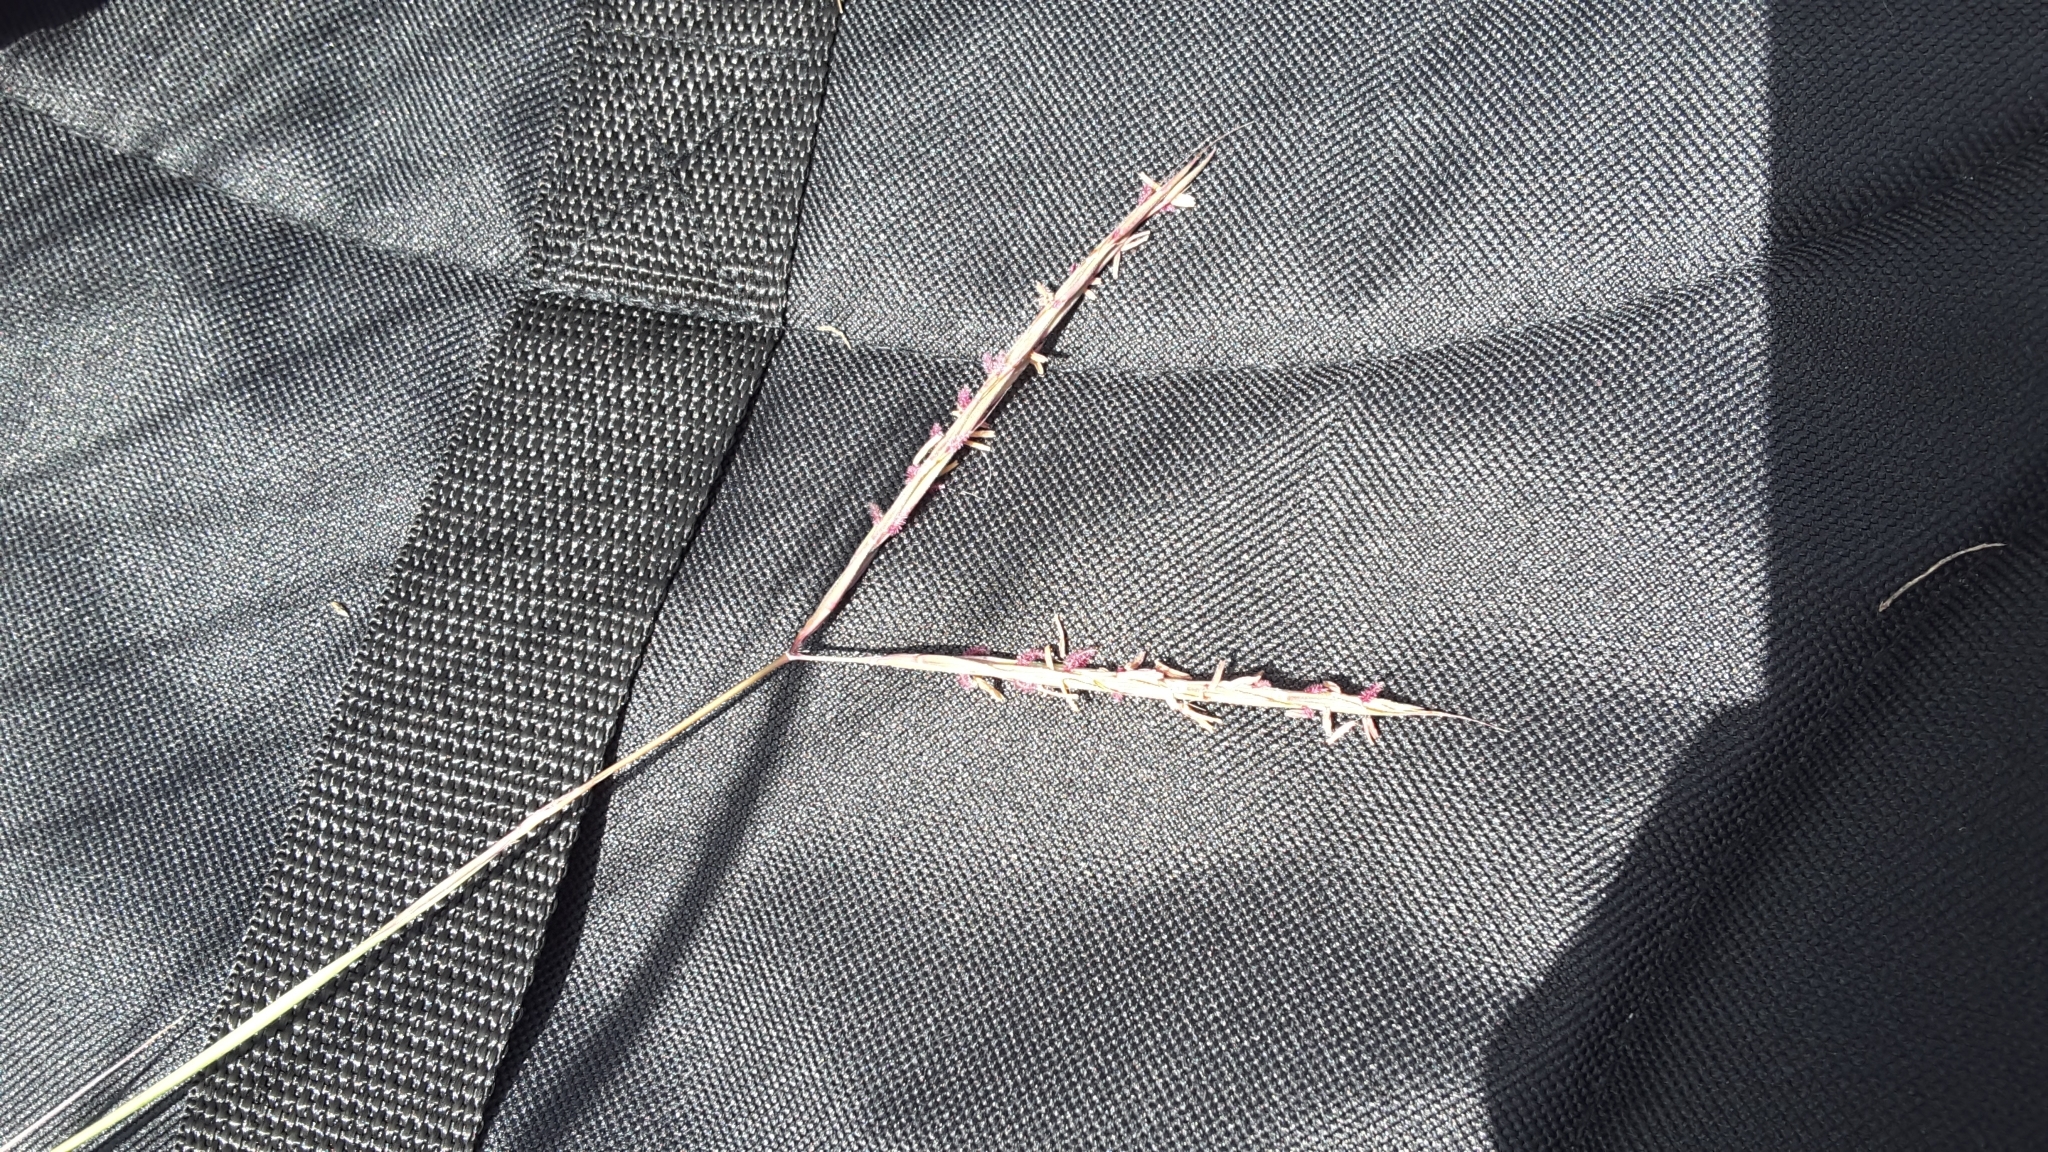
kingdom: Plantae
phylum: Tracheophyta
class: Liliopsida
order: Poales
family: Poaceae
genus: Andropogon
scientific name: Andropogon gerardi
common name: Big bluestem
